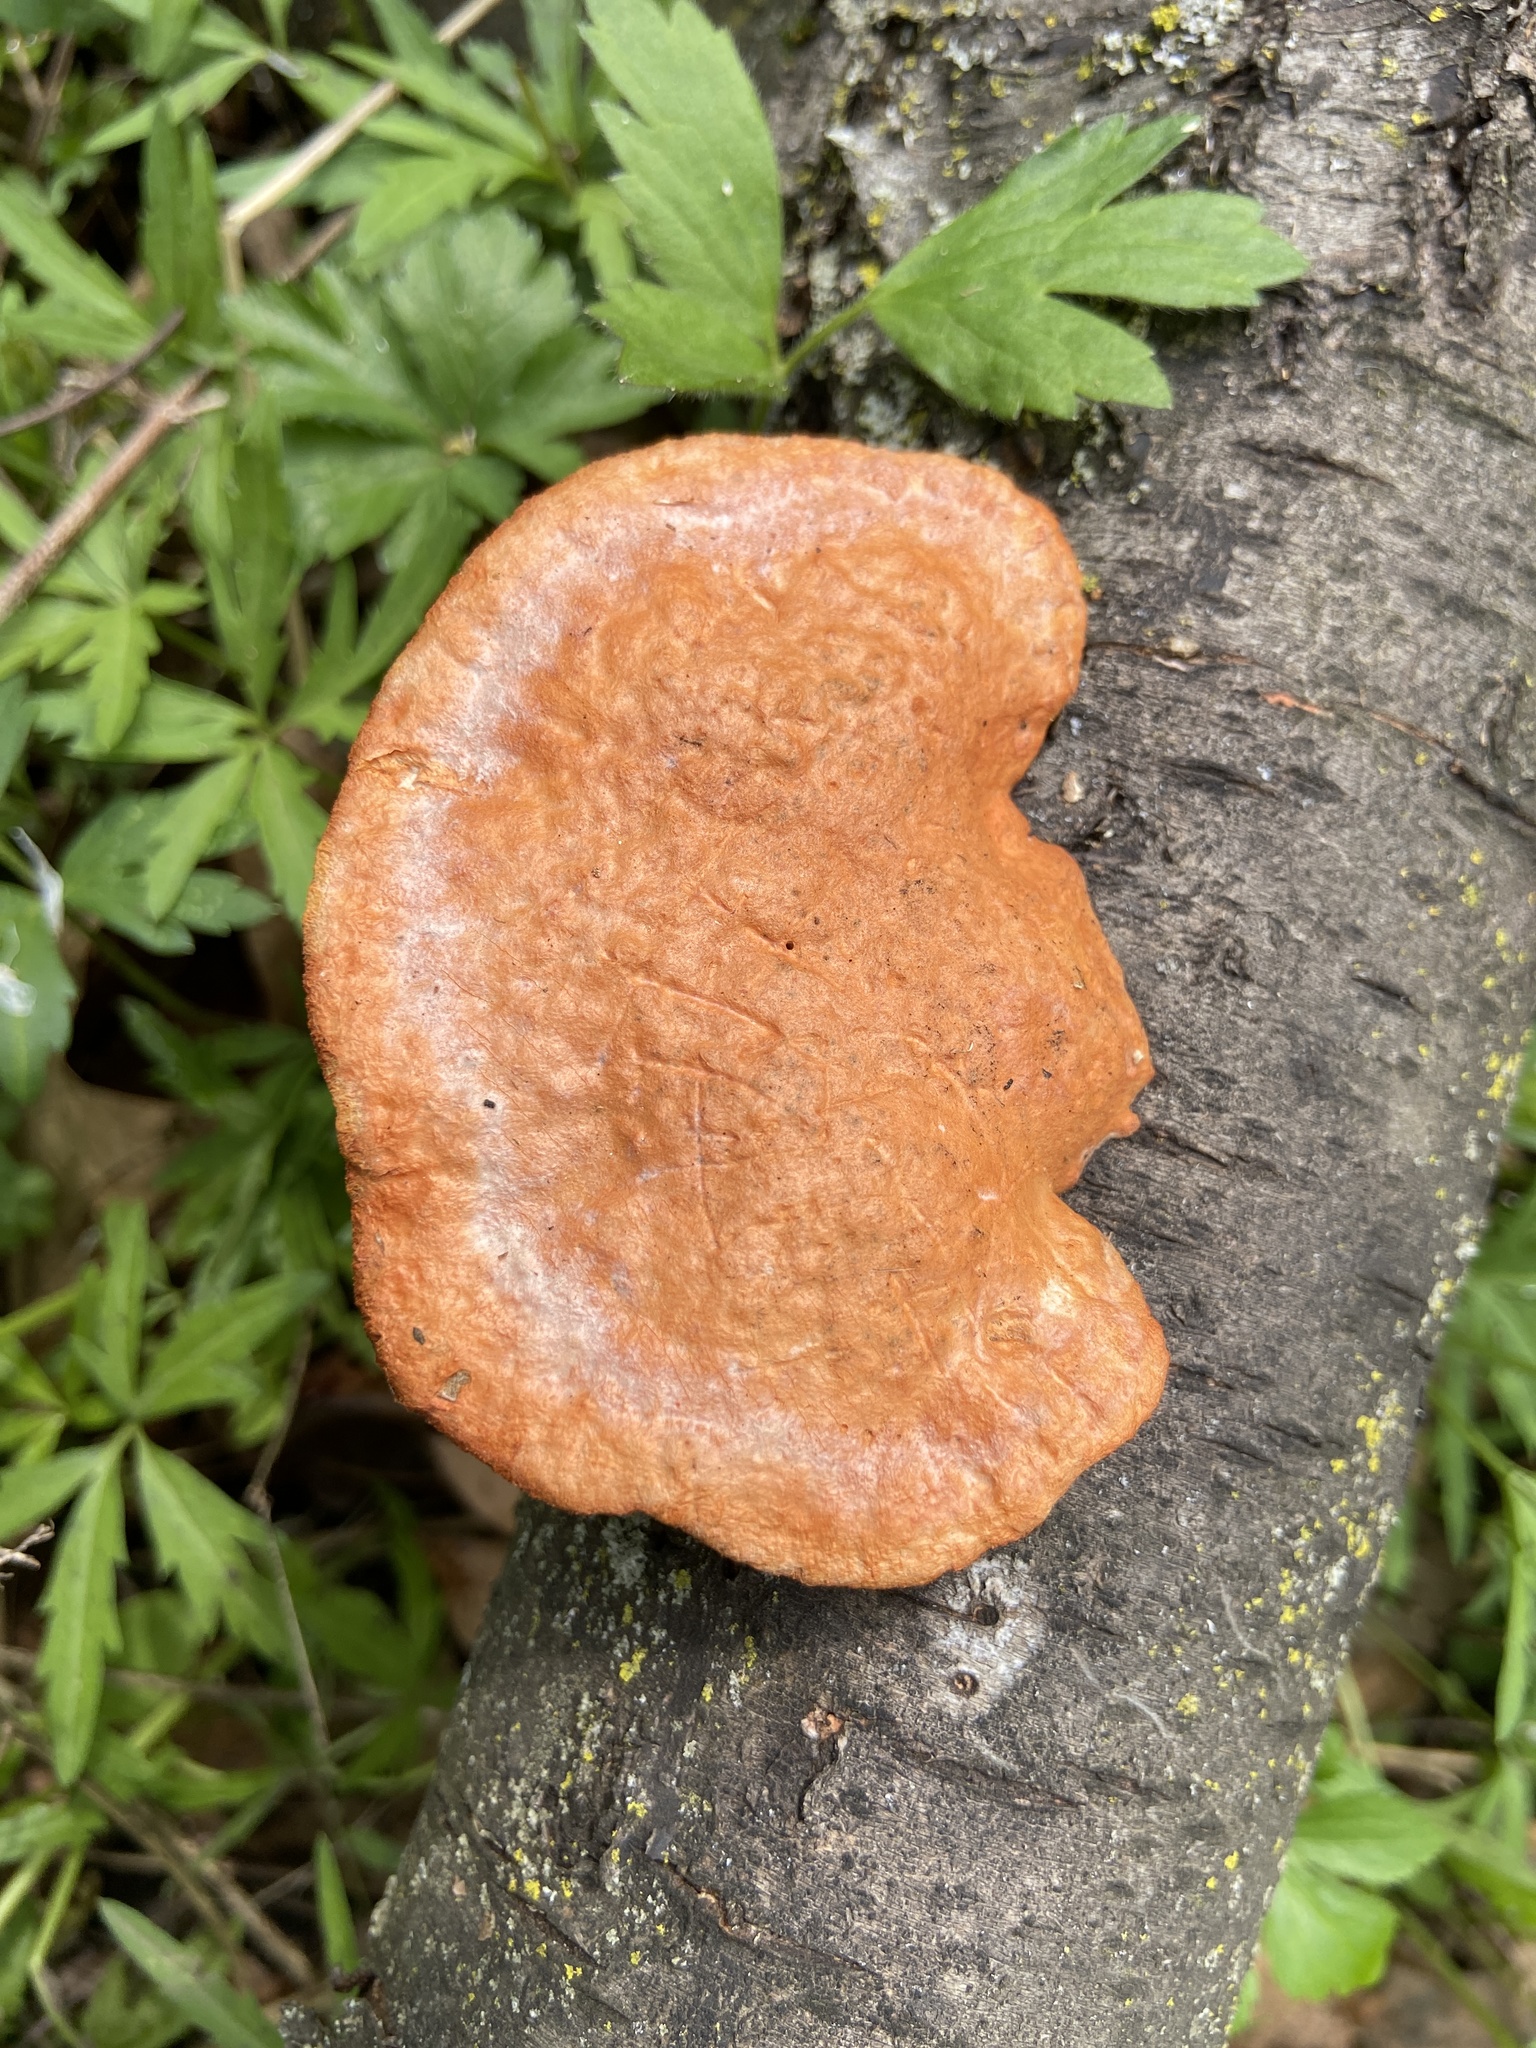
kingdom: Fungi
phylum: Basidiomycota
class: Agaricomycetes
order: Polyporales
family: Polyporaceae
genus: Trametes
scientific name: Trametes cinnabarina
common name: Northern cinnabar polypore
